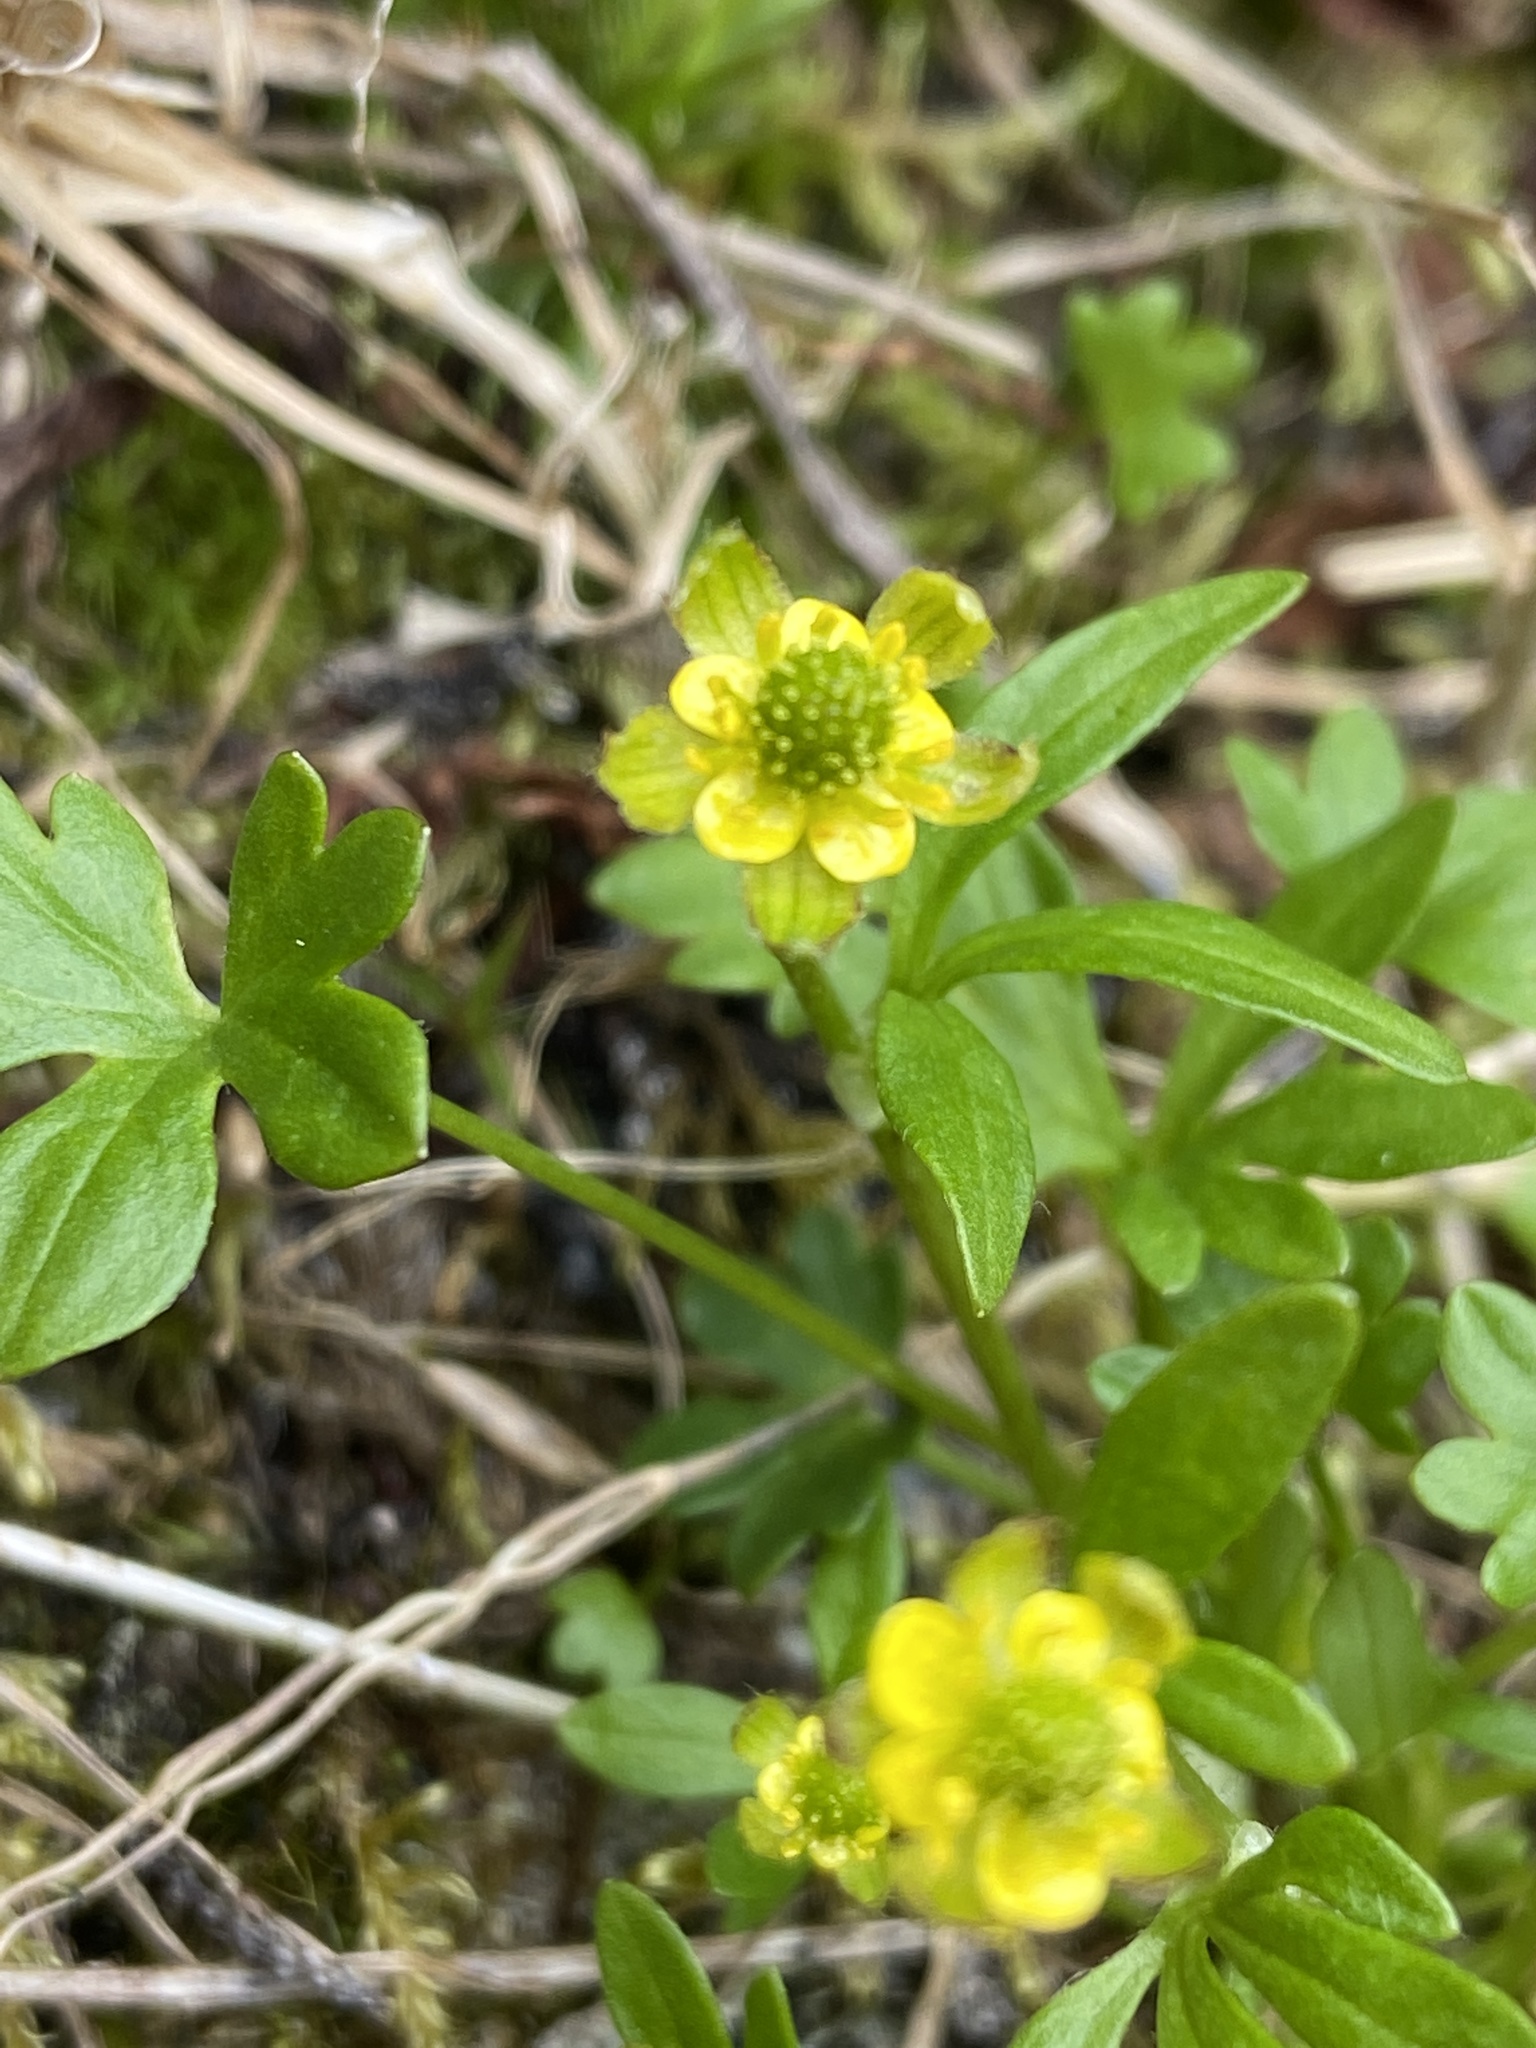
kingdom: Plantae
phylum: Tracheophyta
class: Magnoliopsida
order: Ranunculales
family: Ranunculaceae
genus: Ranunculus
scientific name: Ranunculus pygmaeus
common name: Dwarf buttercup
